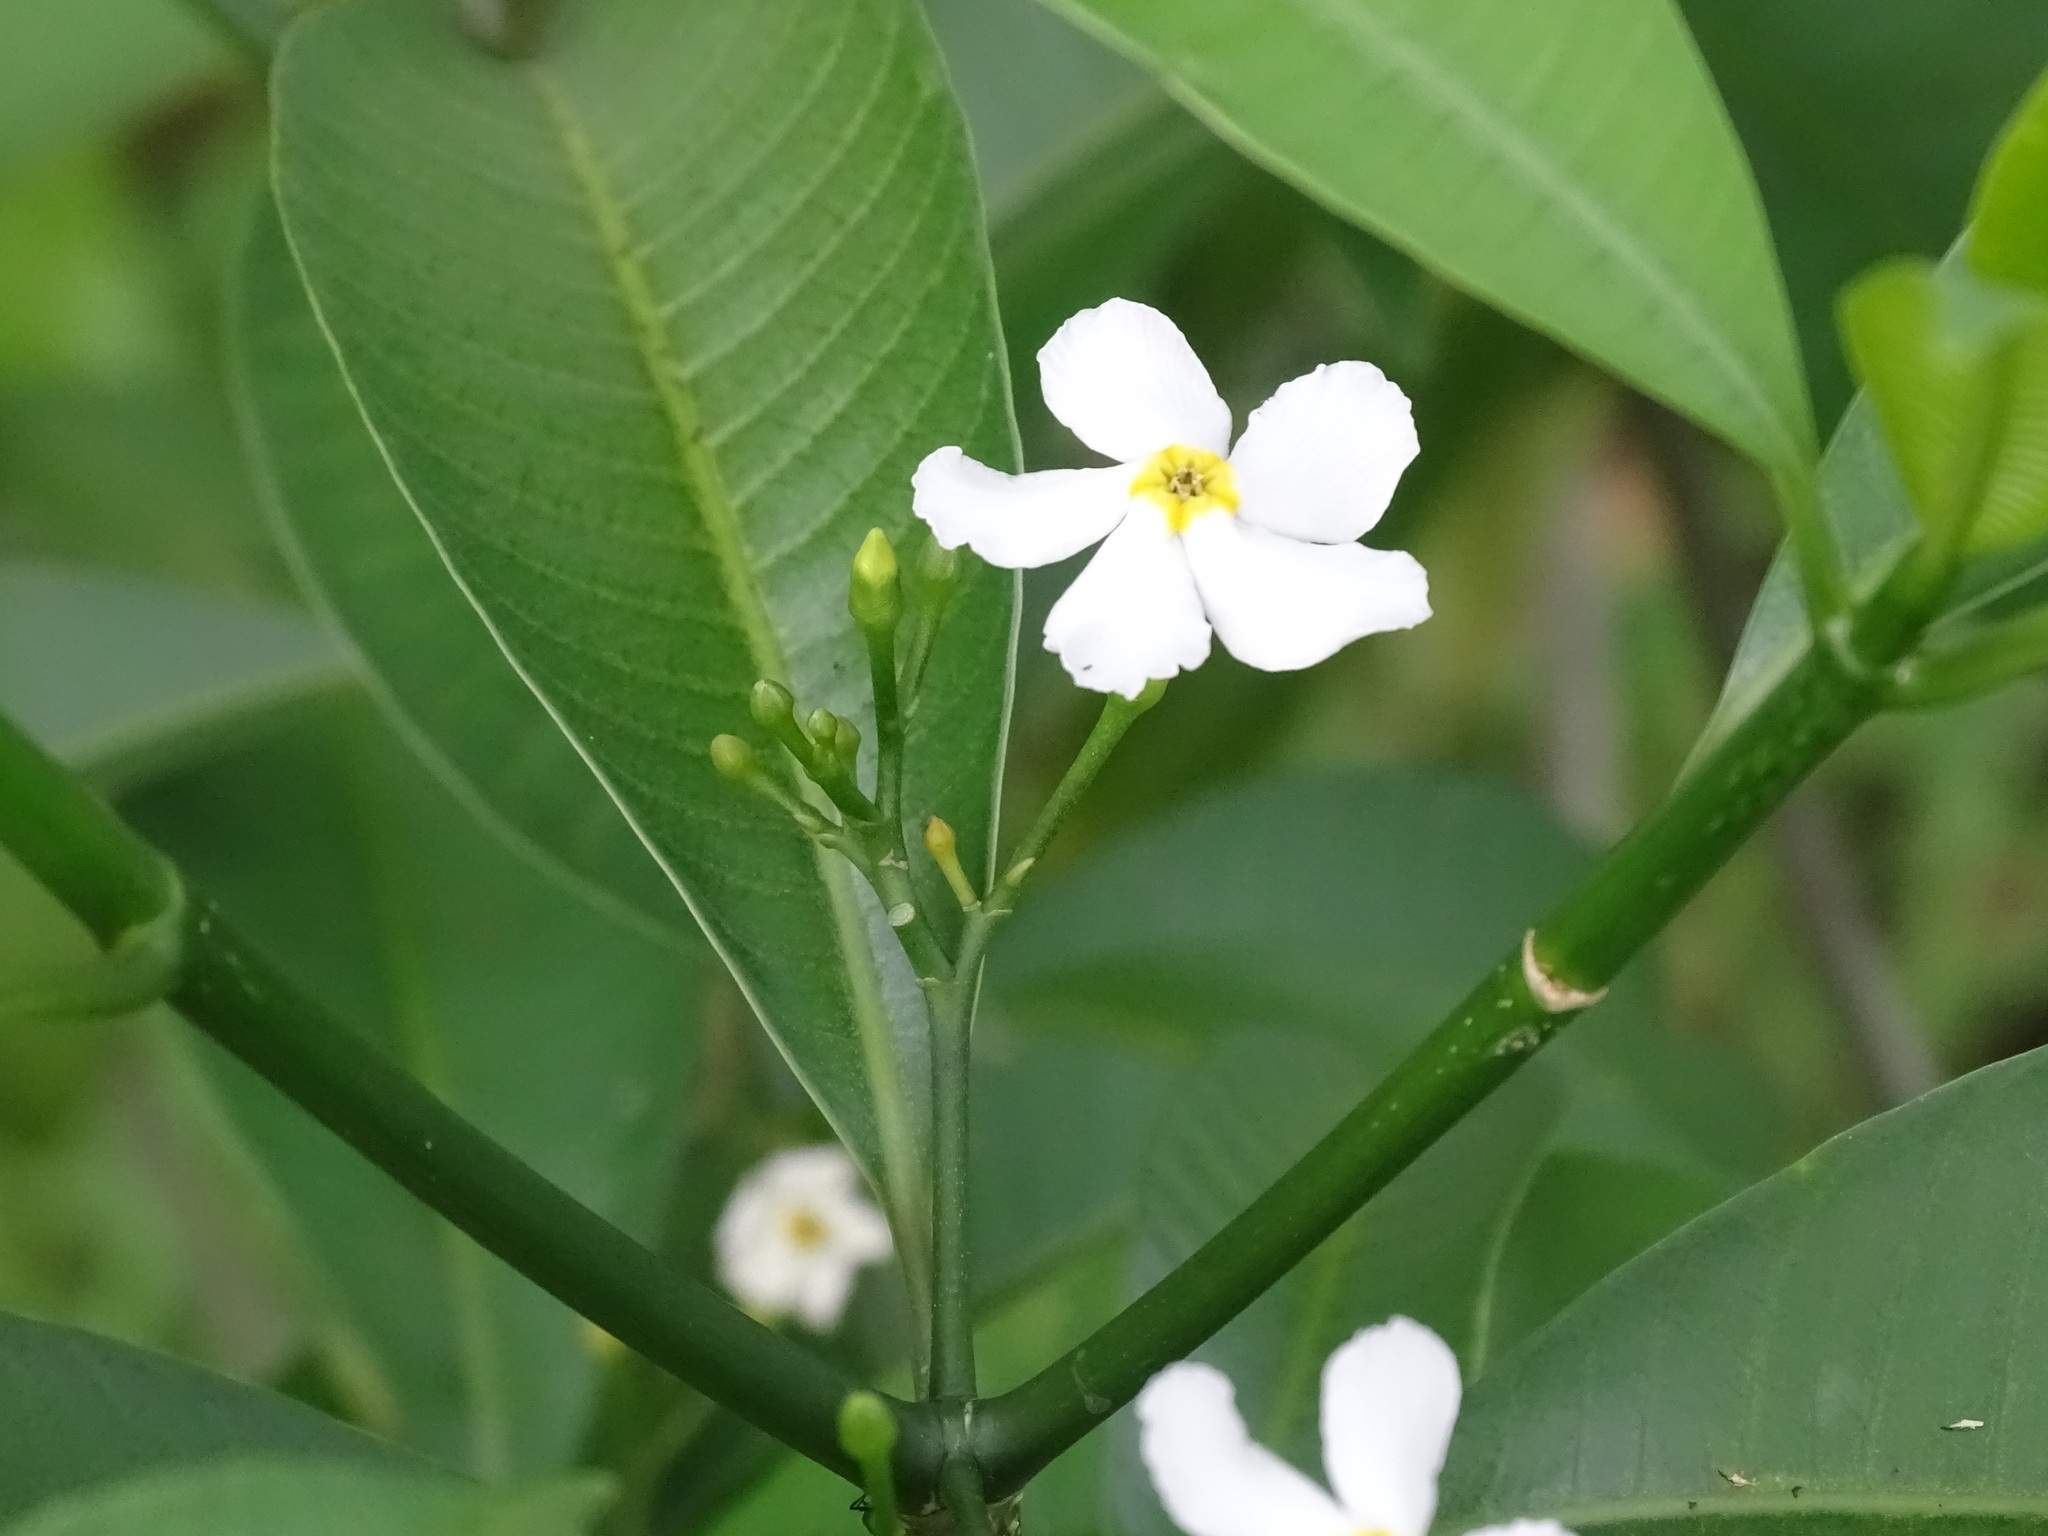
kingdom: Plantae
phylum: Tracheophyta
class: Magnoliopsida
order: Gentianales
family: Apocynaceae
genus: Tabernaemontana
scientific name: Tabernaemontana amygdalifolia
